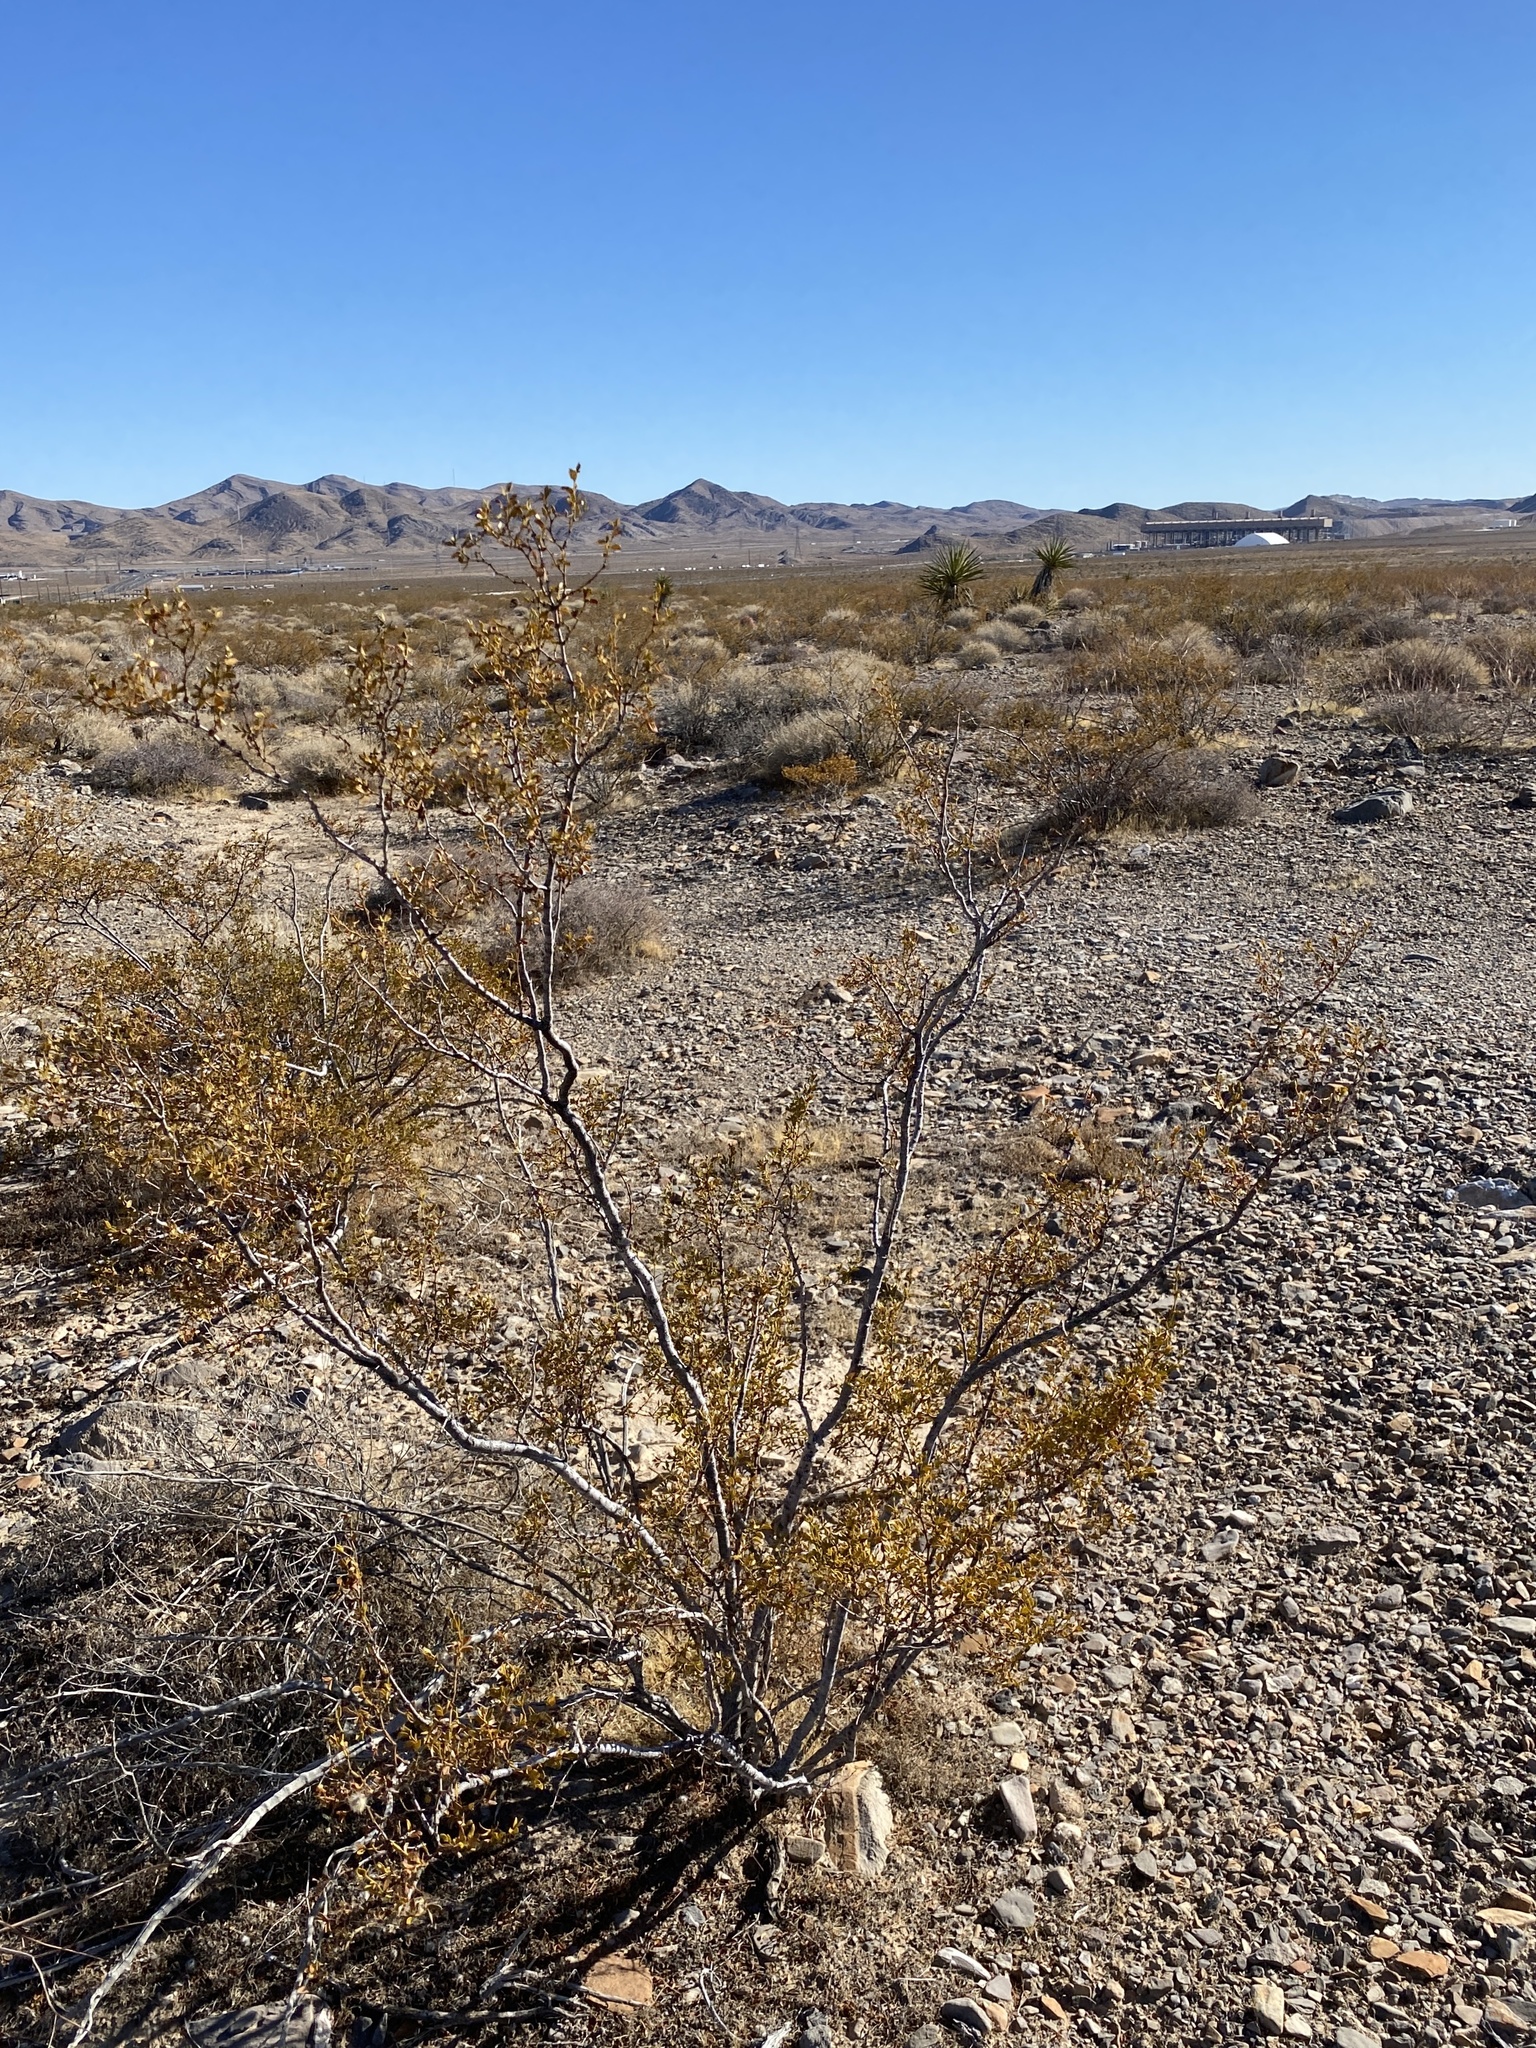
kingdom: Plantae
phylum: Tracheophyta
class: Magnoliopsida
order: Zygophyllales
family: Zygophyllaceae
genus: Larrea
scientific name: Larrea tridentata
